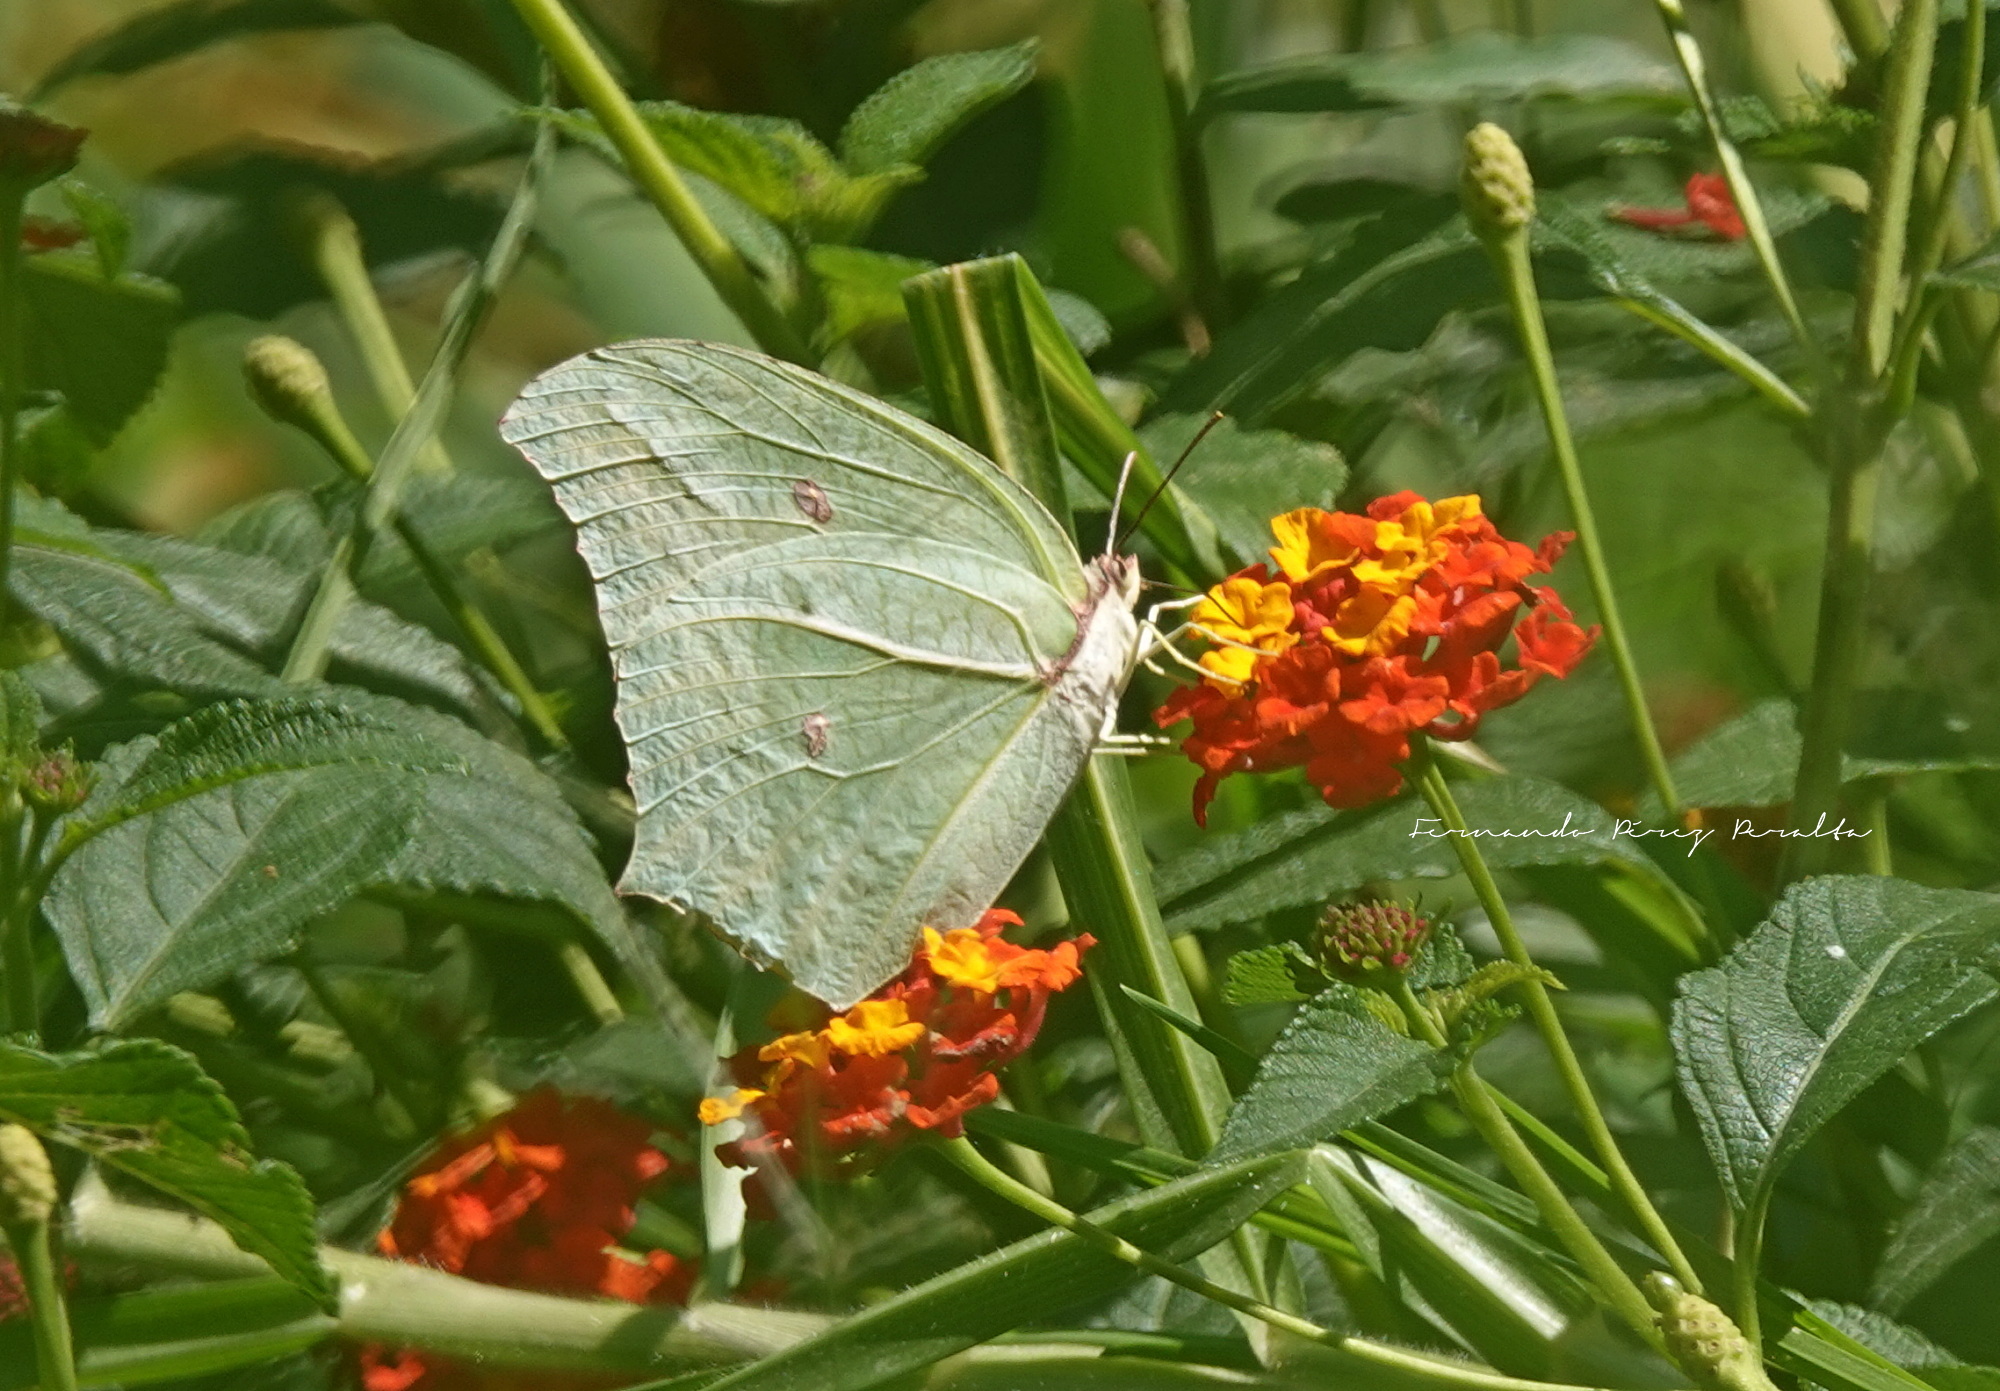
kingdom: Animalia
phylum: Arthropoda
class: Insecta
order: Lepidoptera
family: Pieridae
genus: Anteos
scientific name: Anteos maerula
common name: Angled sulphur
